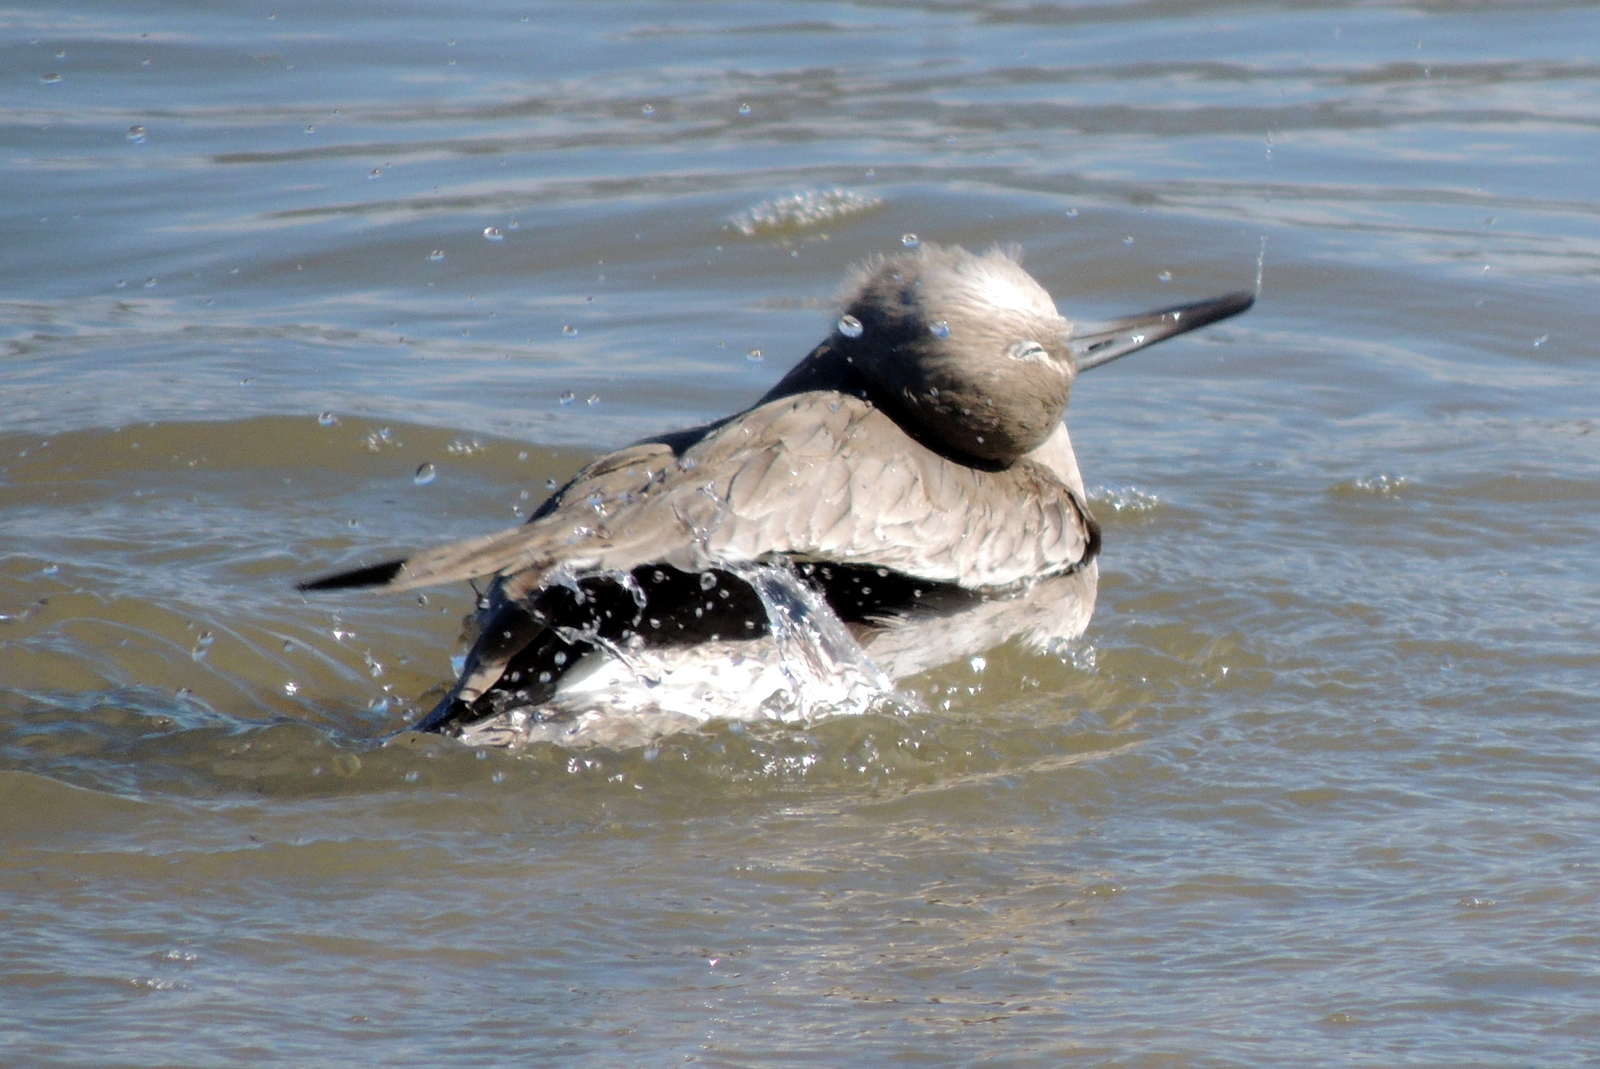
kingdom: Animalia
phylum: Chordata
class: Aves
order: Charadriiformes
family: Scolopacidae
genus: Tringa
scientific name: Tringa semipalmata
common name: Willet
